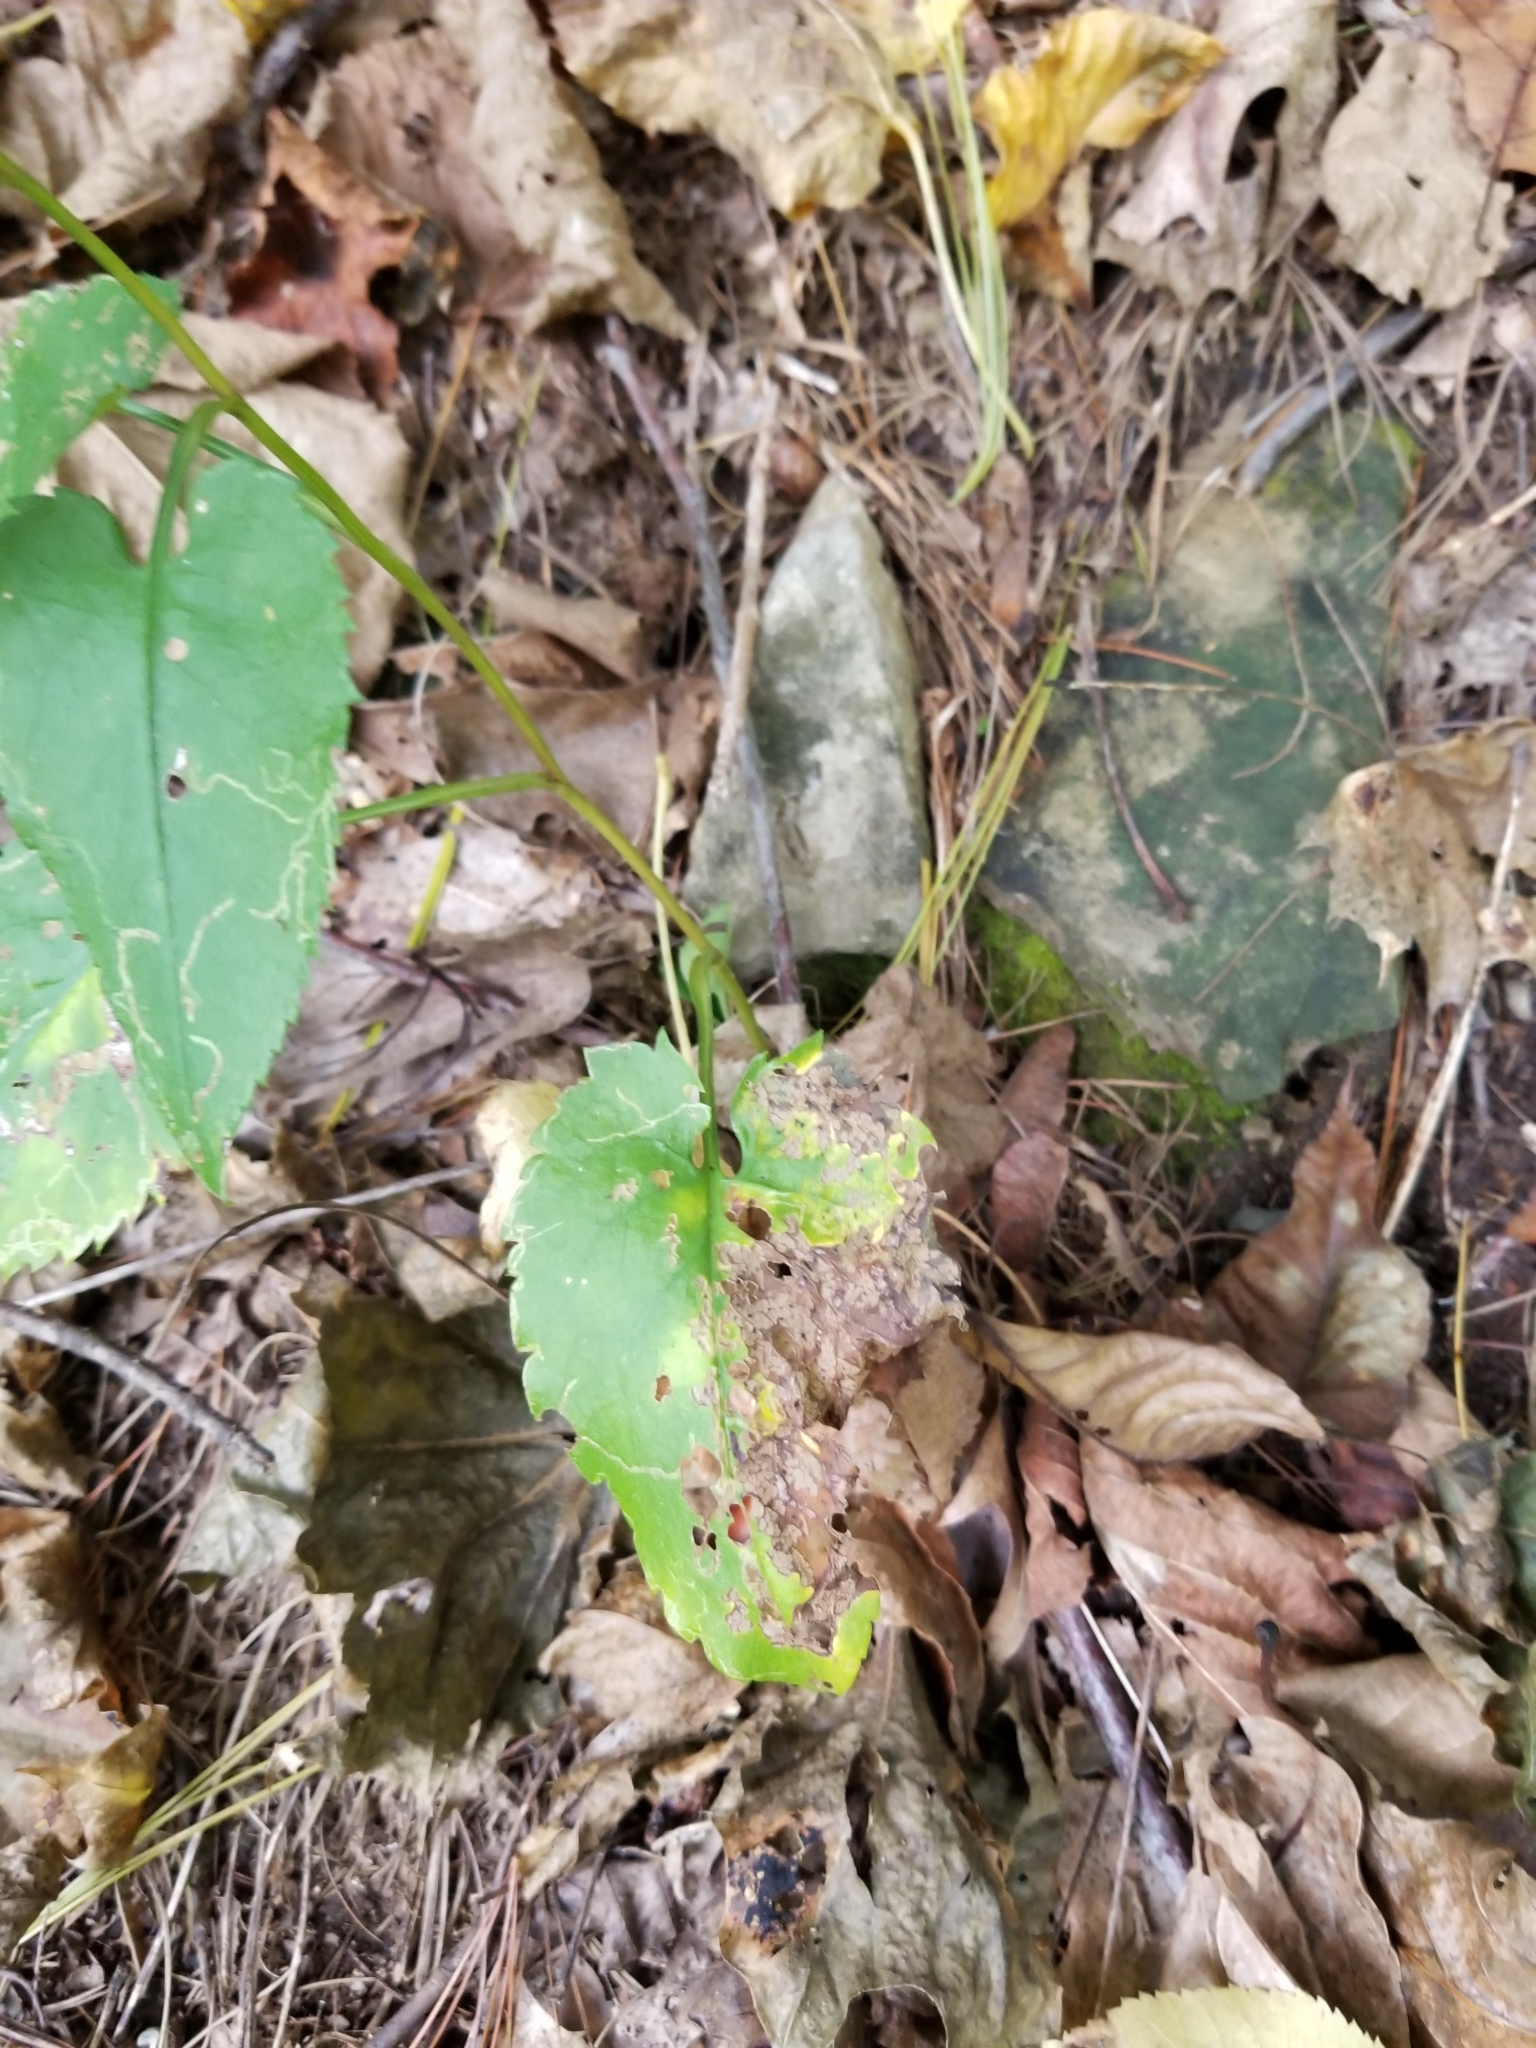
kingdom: Plantae
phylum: Tracheophyta
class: Magnoliopsida
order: Asterales
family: Asteraceae
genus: Symphyotrichum
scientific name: Symphyotrichum cordifolium
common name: Beeweed
